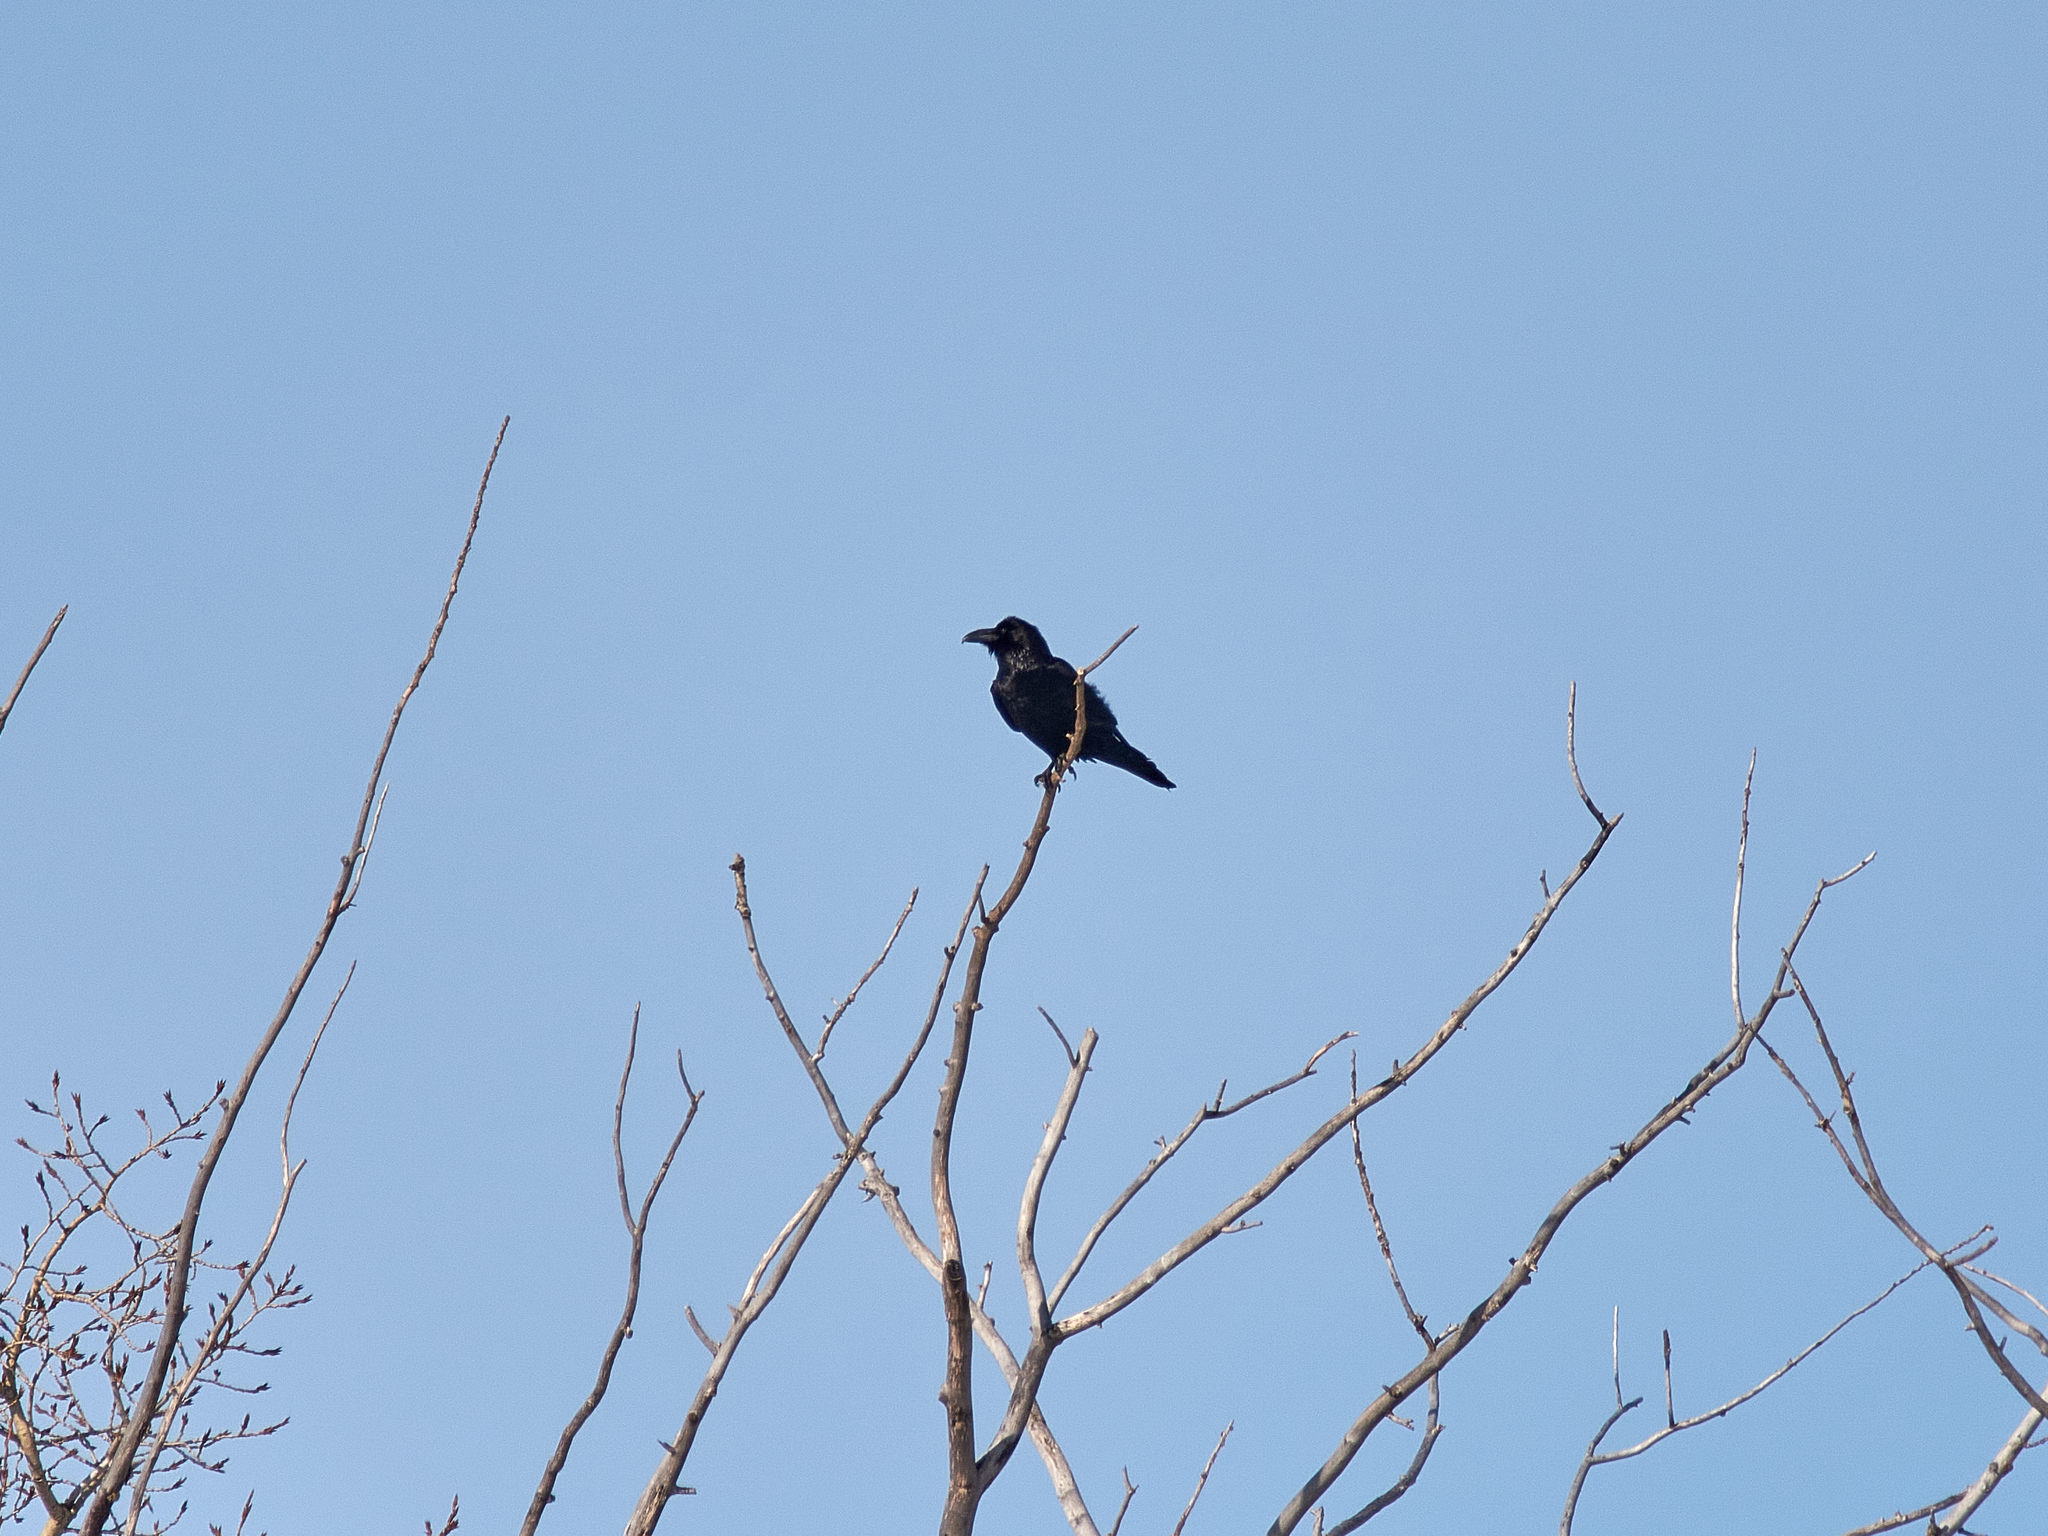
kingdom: Animalia
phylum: Chordata
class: Aves
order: Passeriformes
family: Corvidae
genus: Corvus
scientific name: Corvus corax
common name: Common raven
